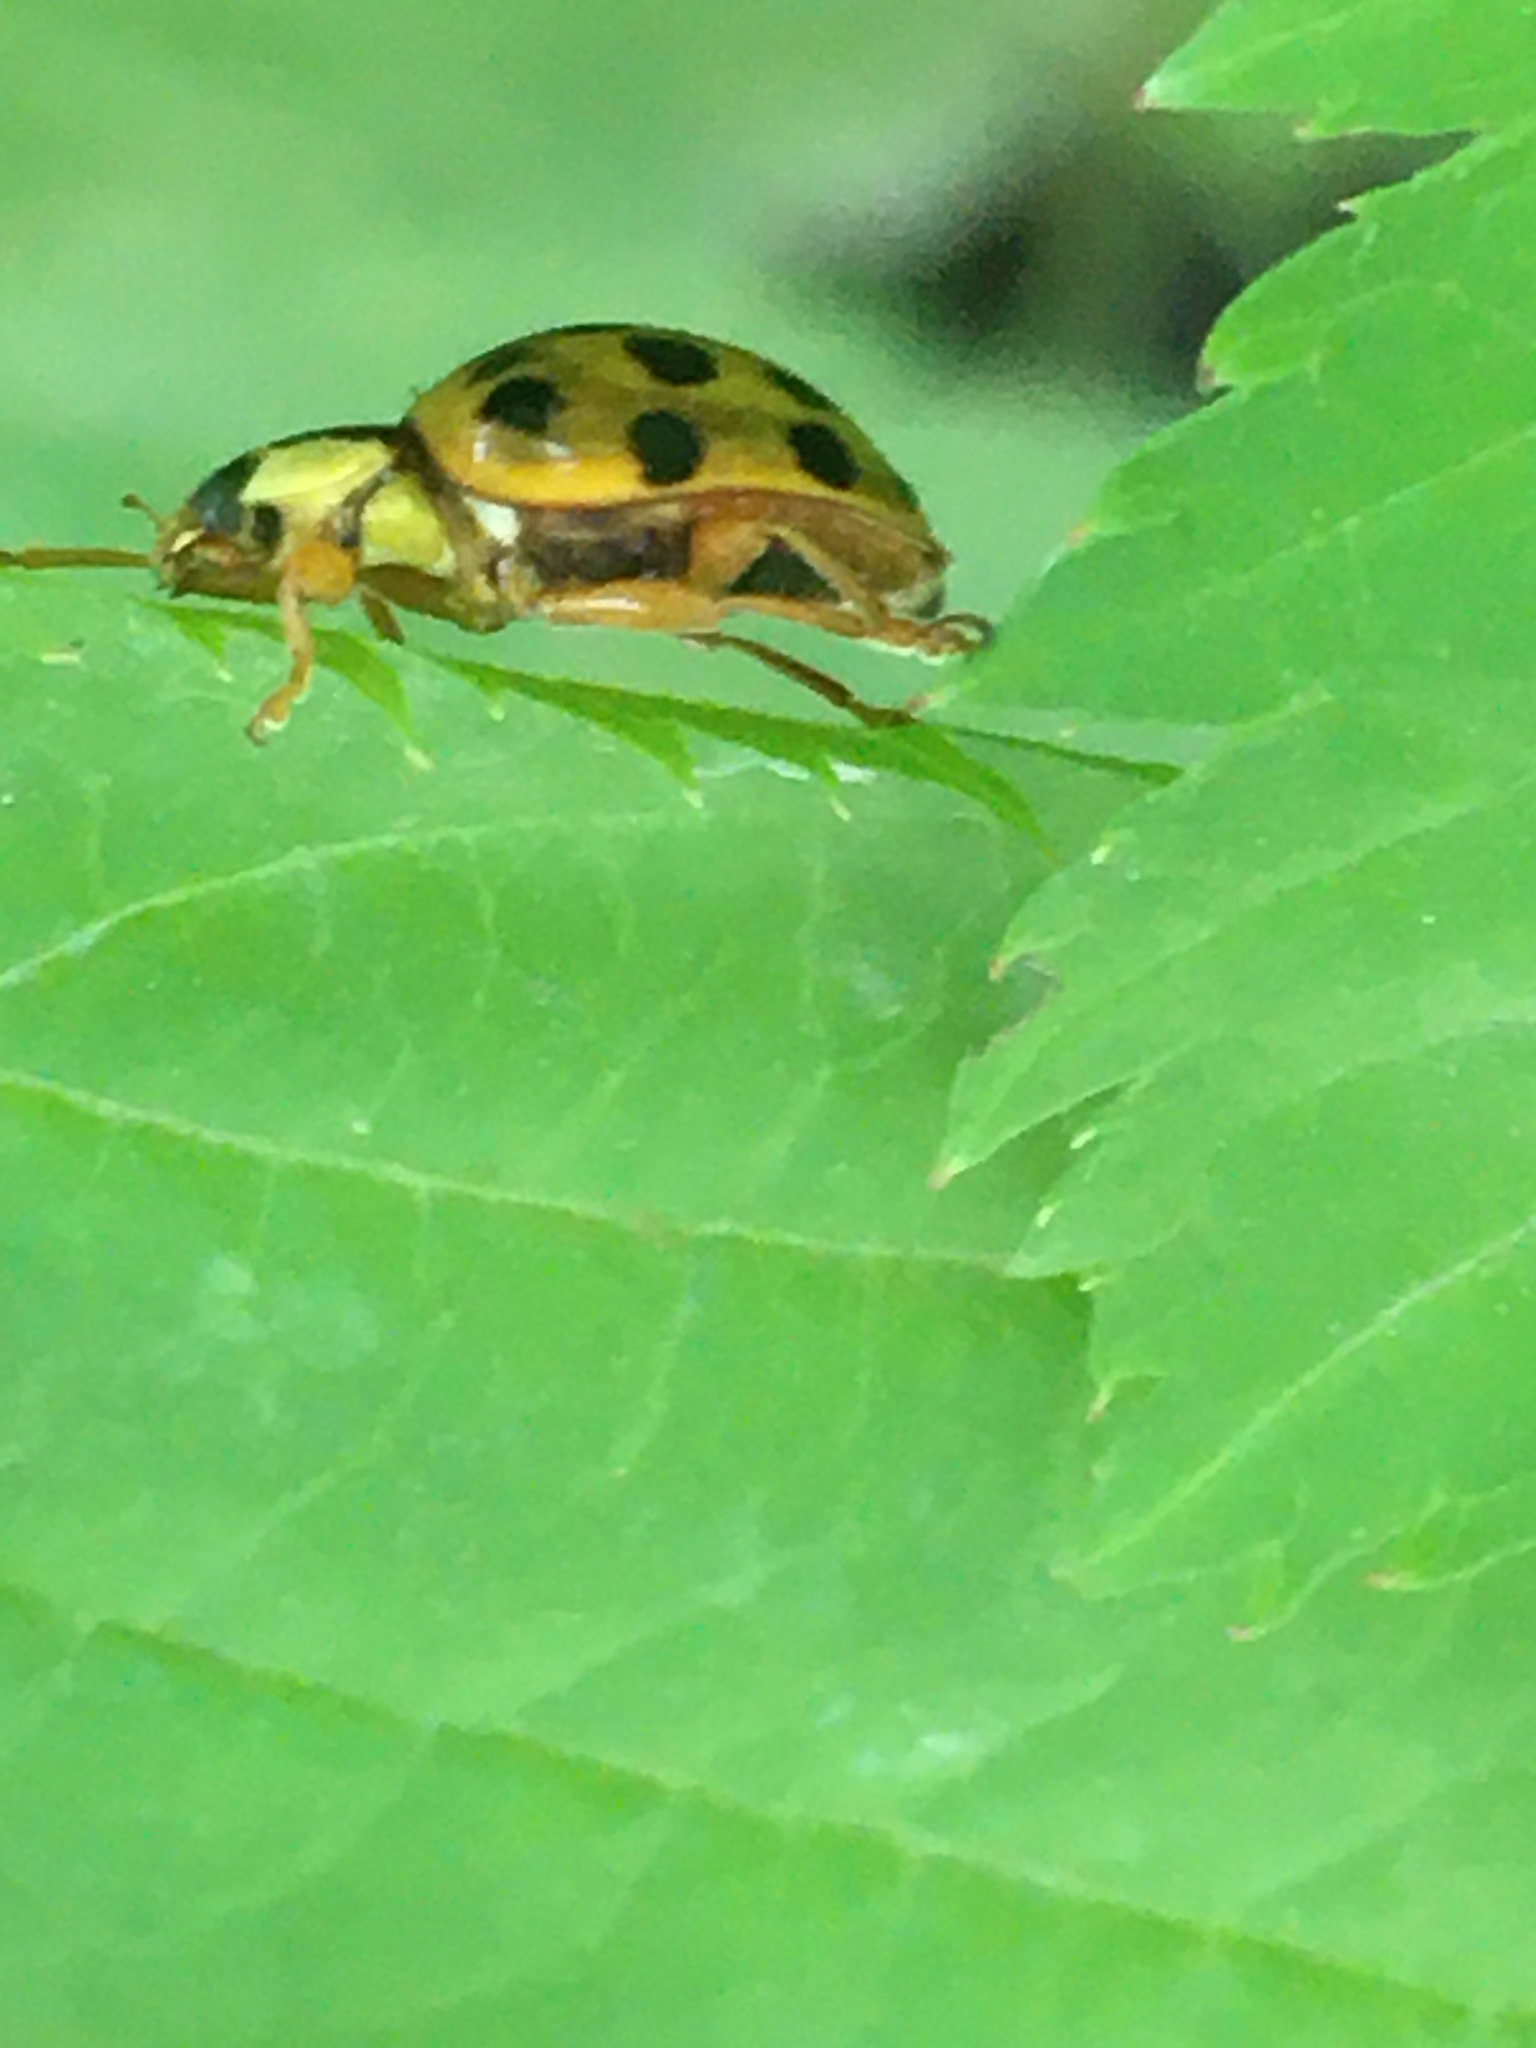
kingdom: Animalia
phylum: Arthropoda
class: Insecta
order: Coleoptera
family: Coccinellidae
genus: Harmonia
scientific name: Harmonia axyridis
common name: Harlequin ladybird
